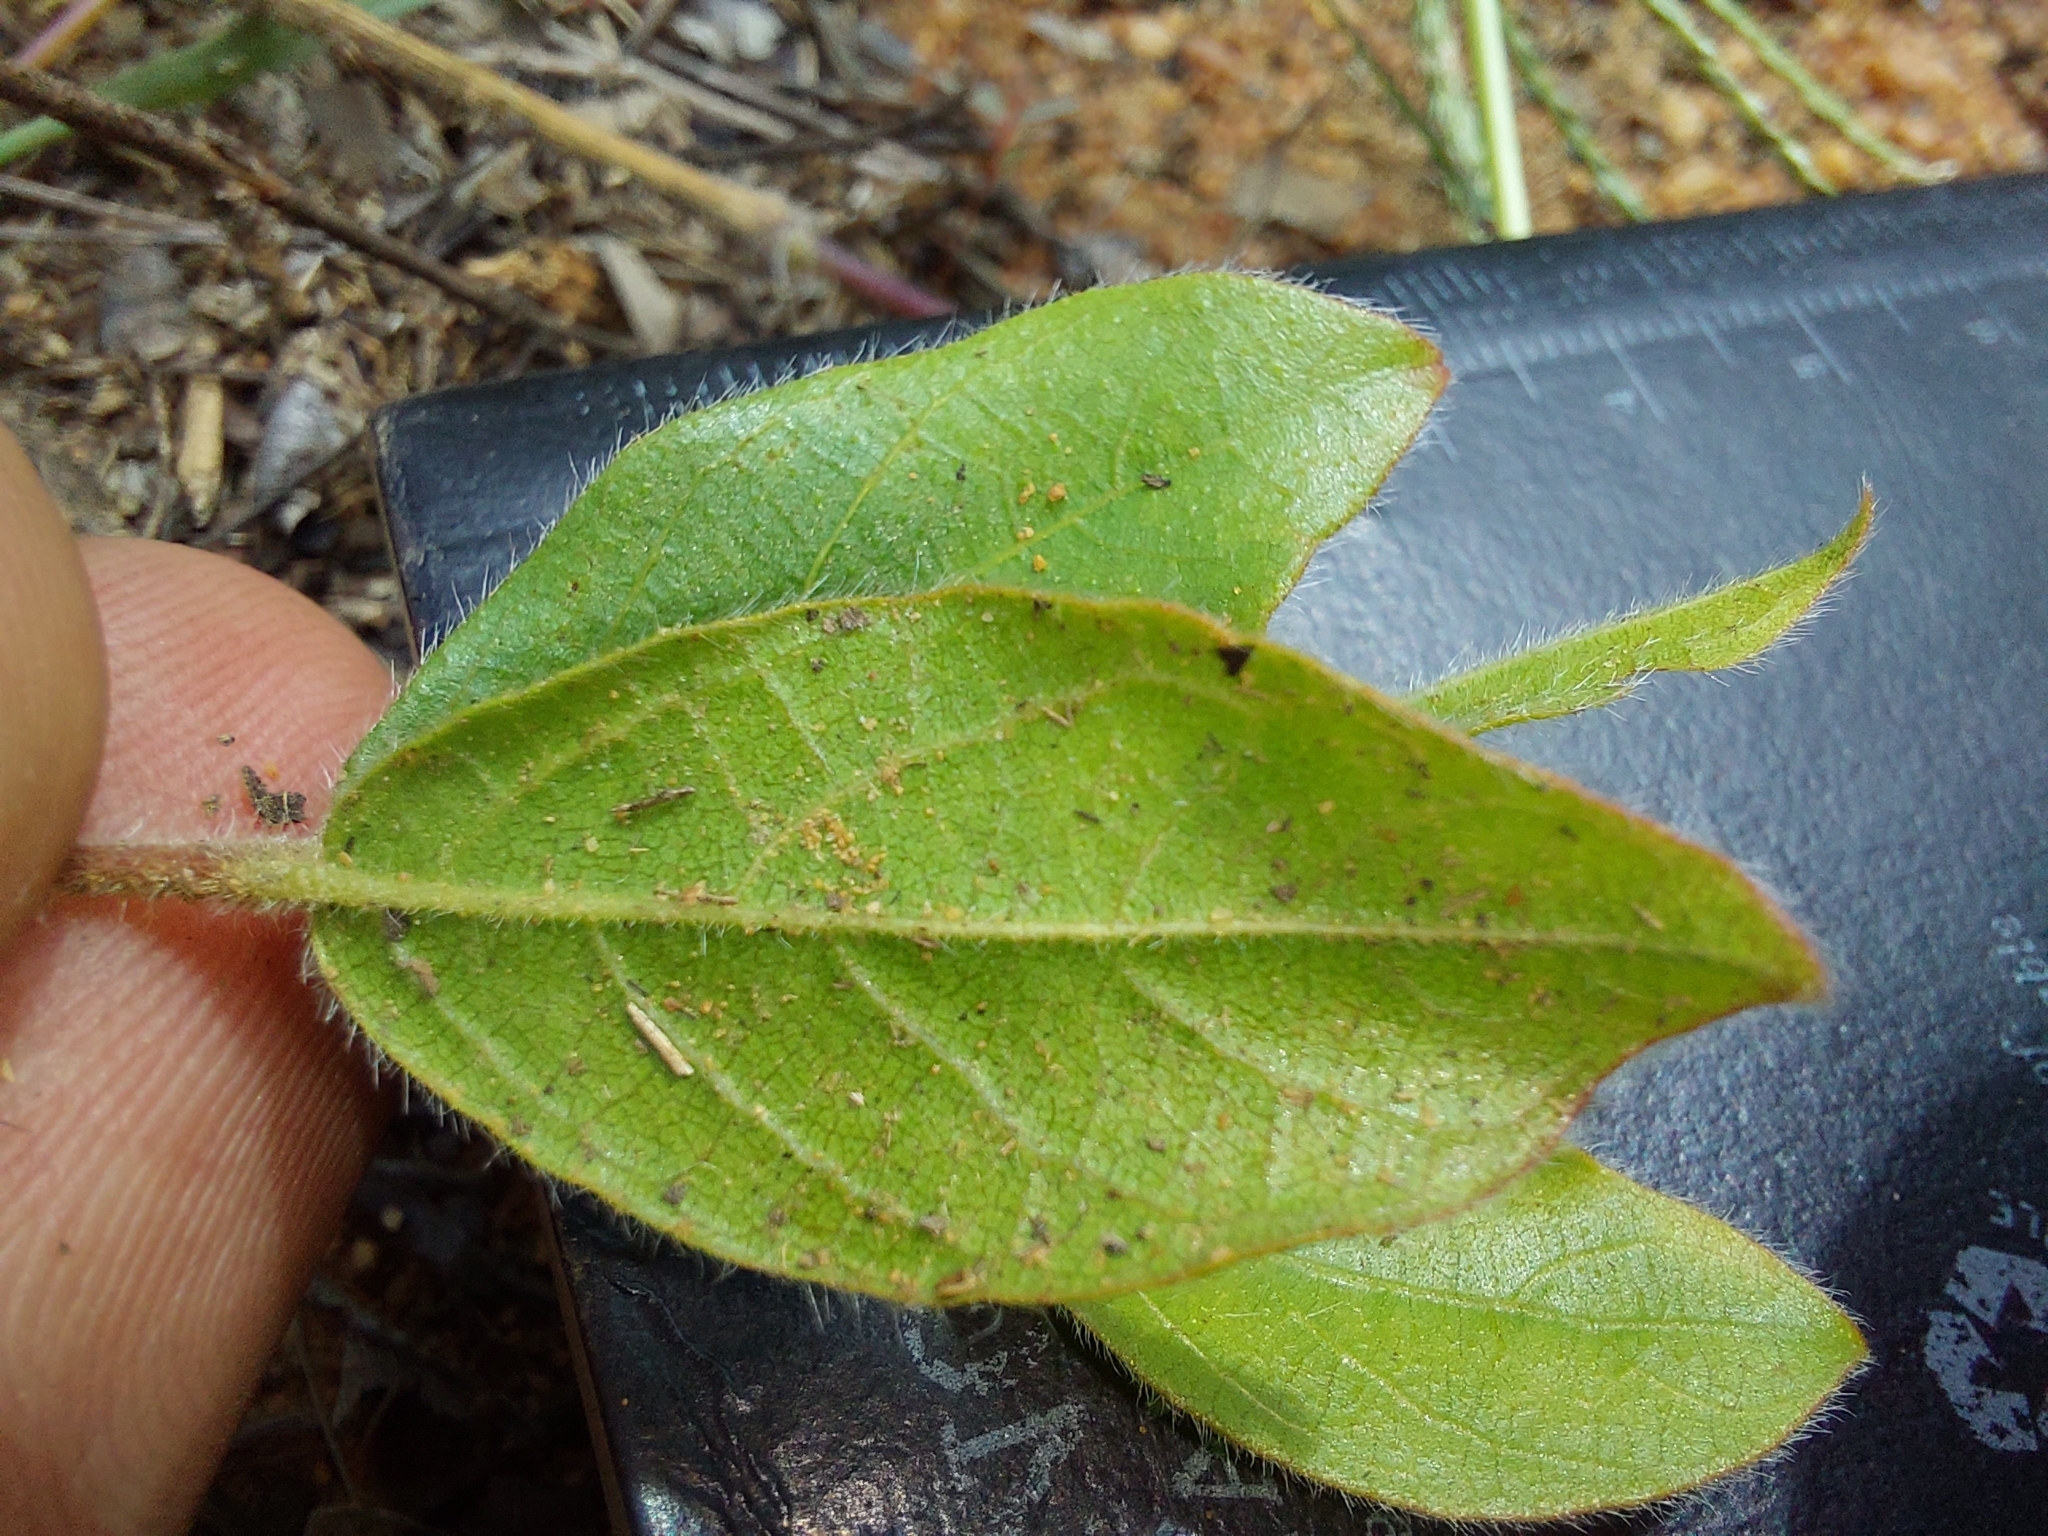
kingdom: Plantae
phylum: Tracheophyta
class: Magnoliopsida
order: Myrtales
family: Combretaceae
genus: Combretum
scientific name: Combretum apiculatum
